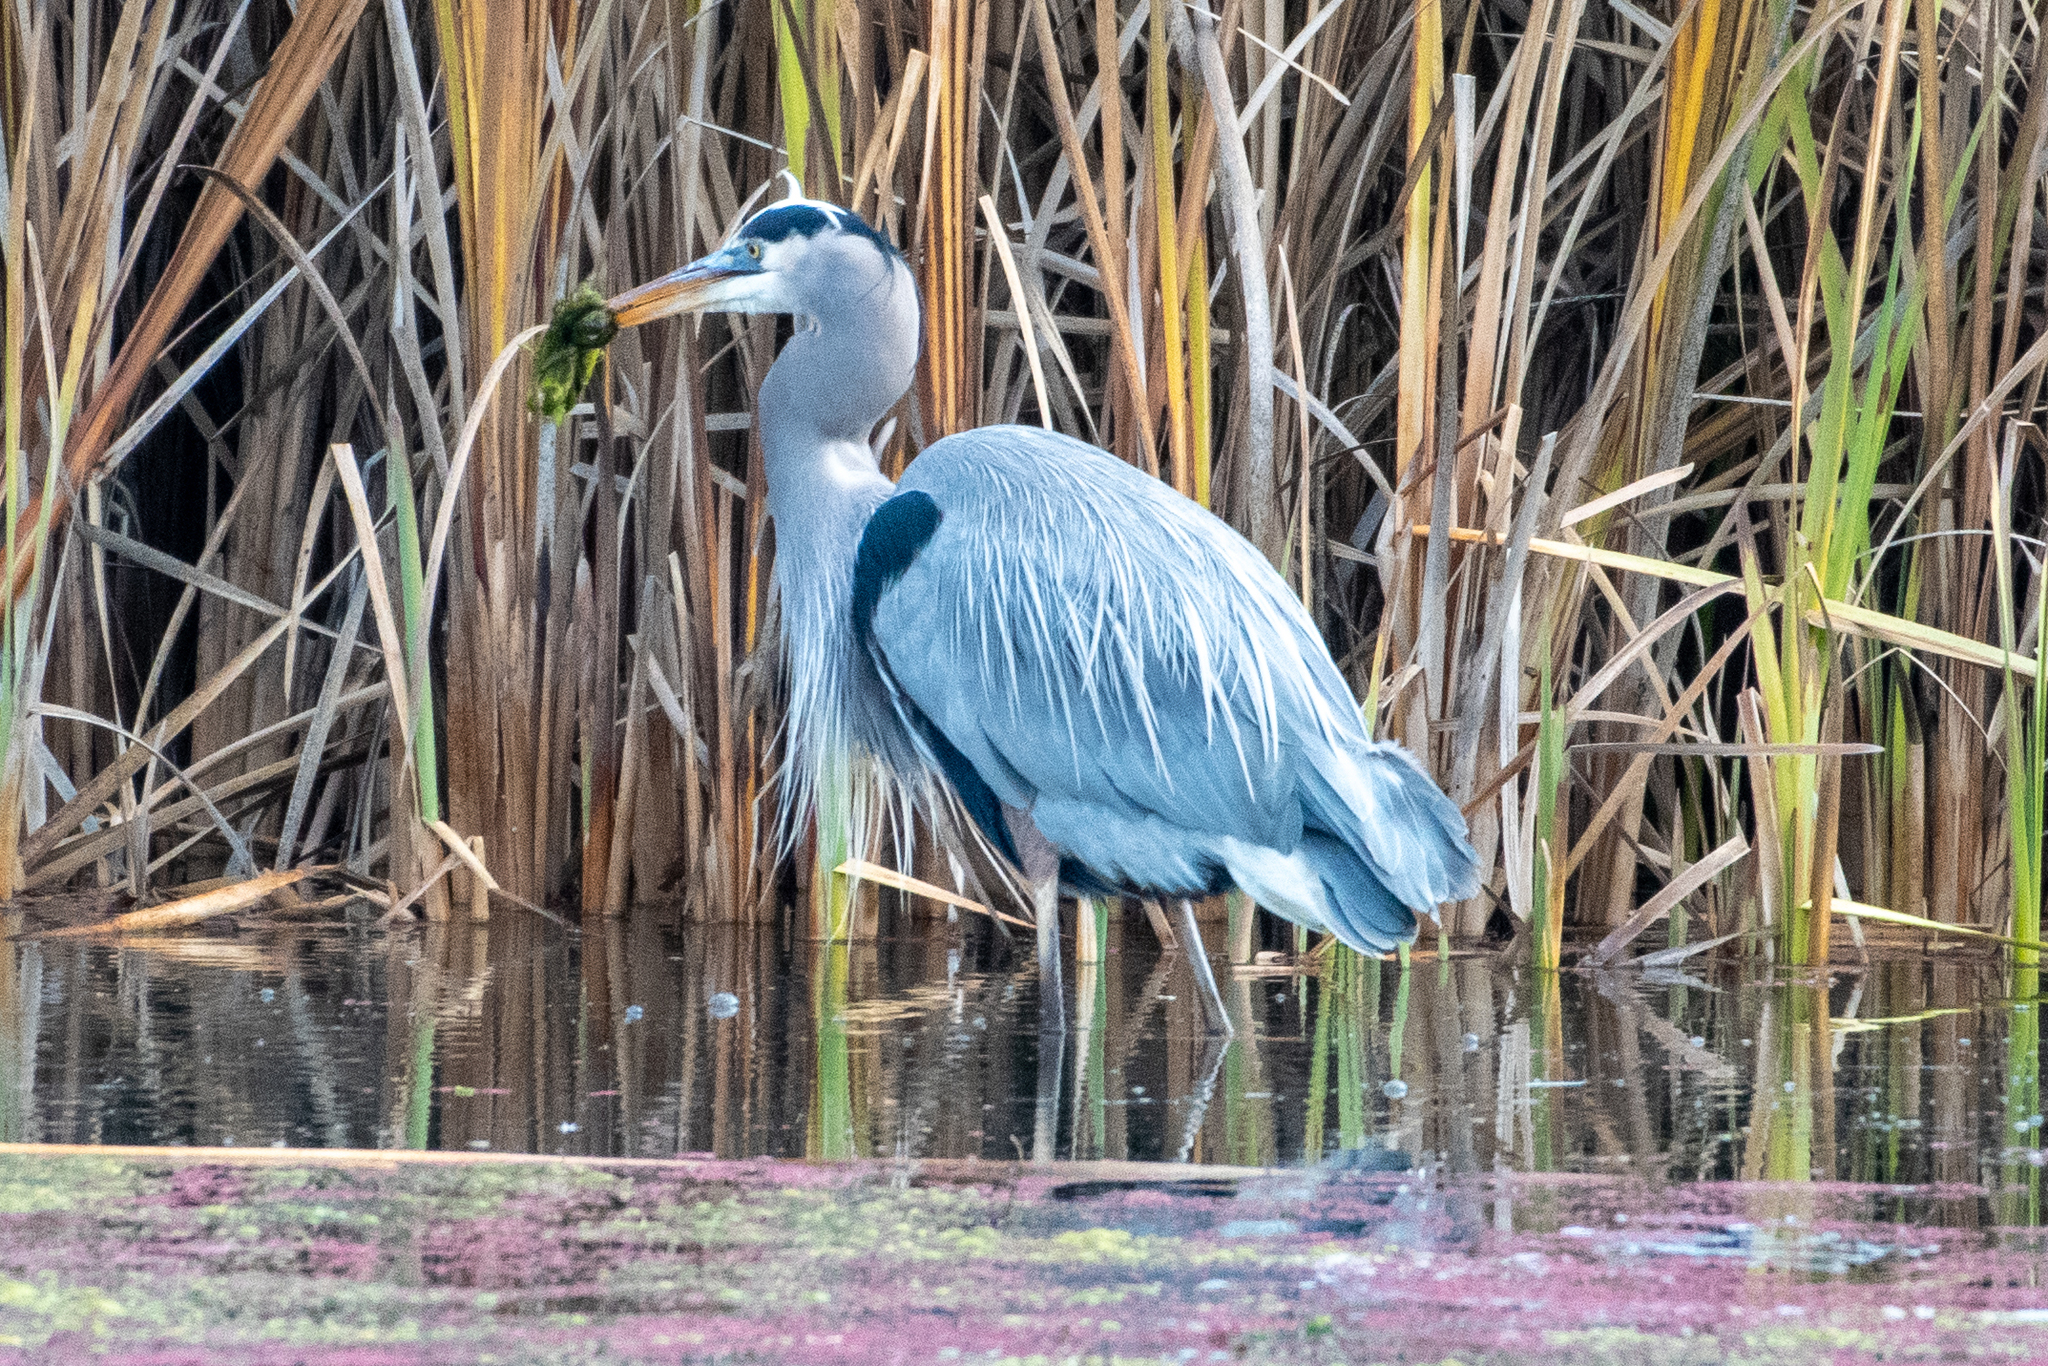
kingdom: Animalia
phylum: Chordata
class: Aves
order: Pelecaniformes
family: Ardeidae
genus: Ardea
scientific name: Ardea herodias
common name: Great blue heron
